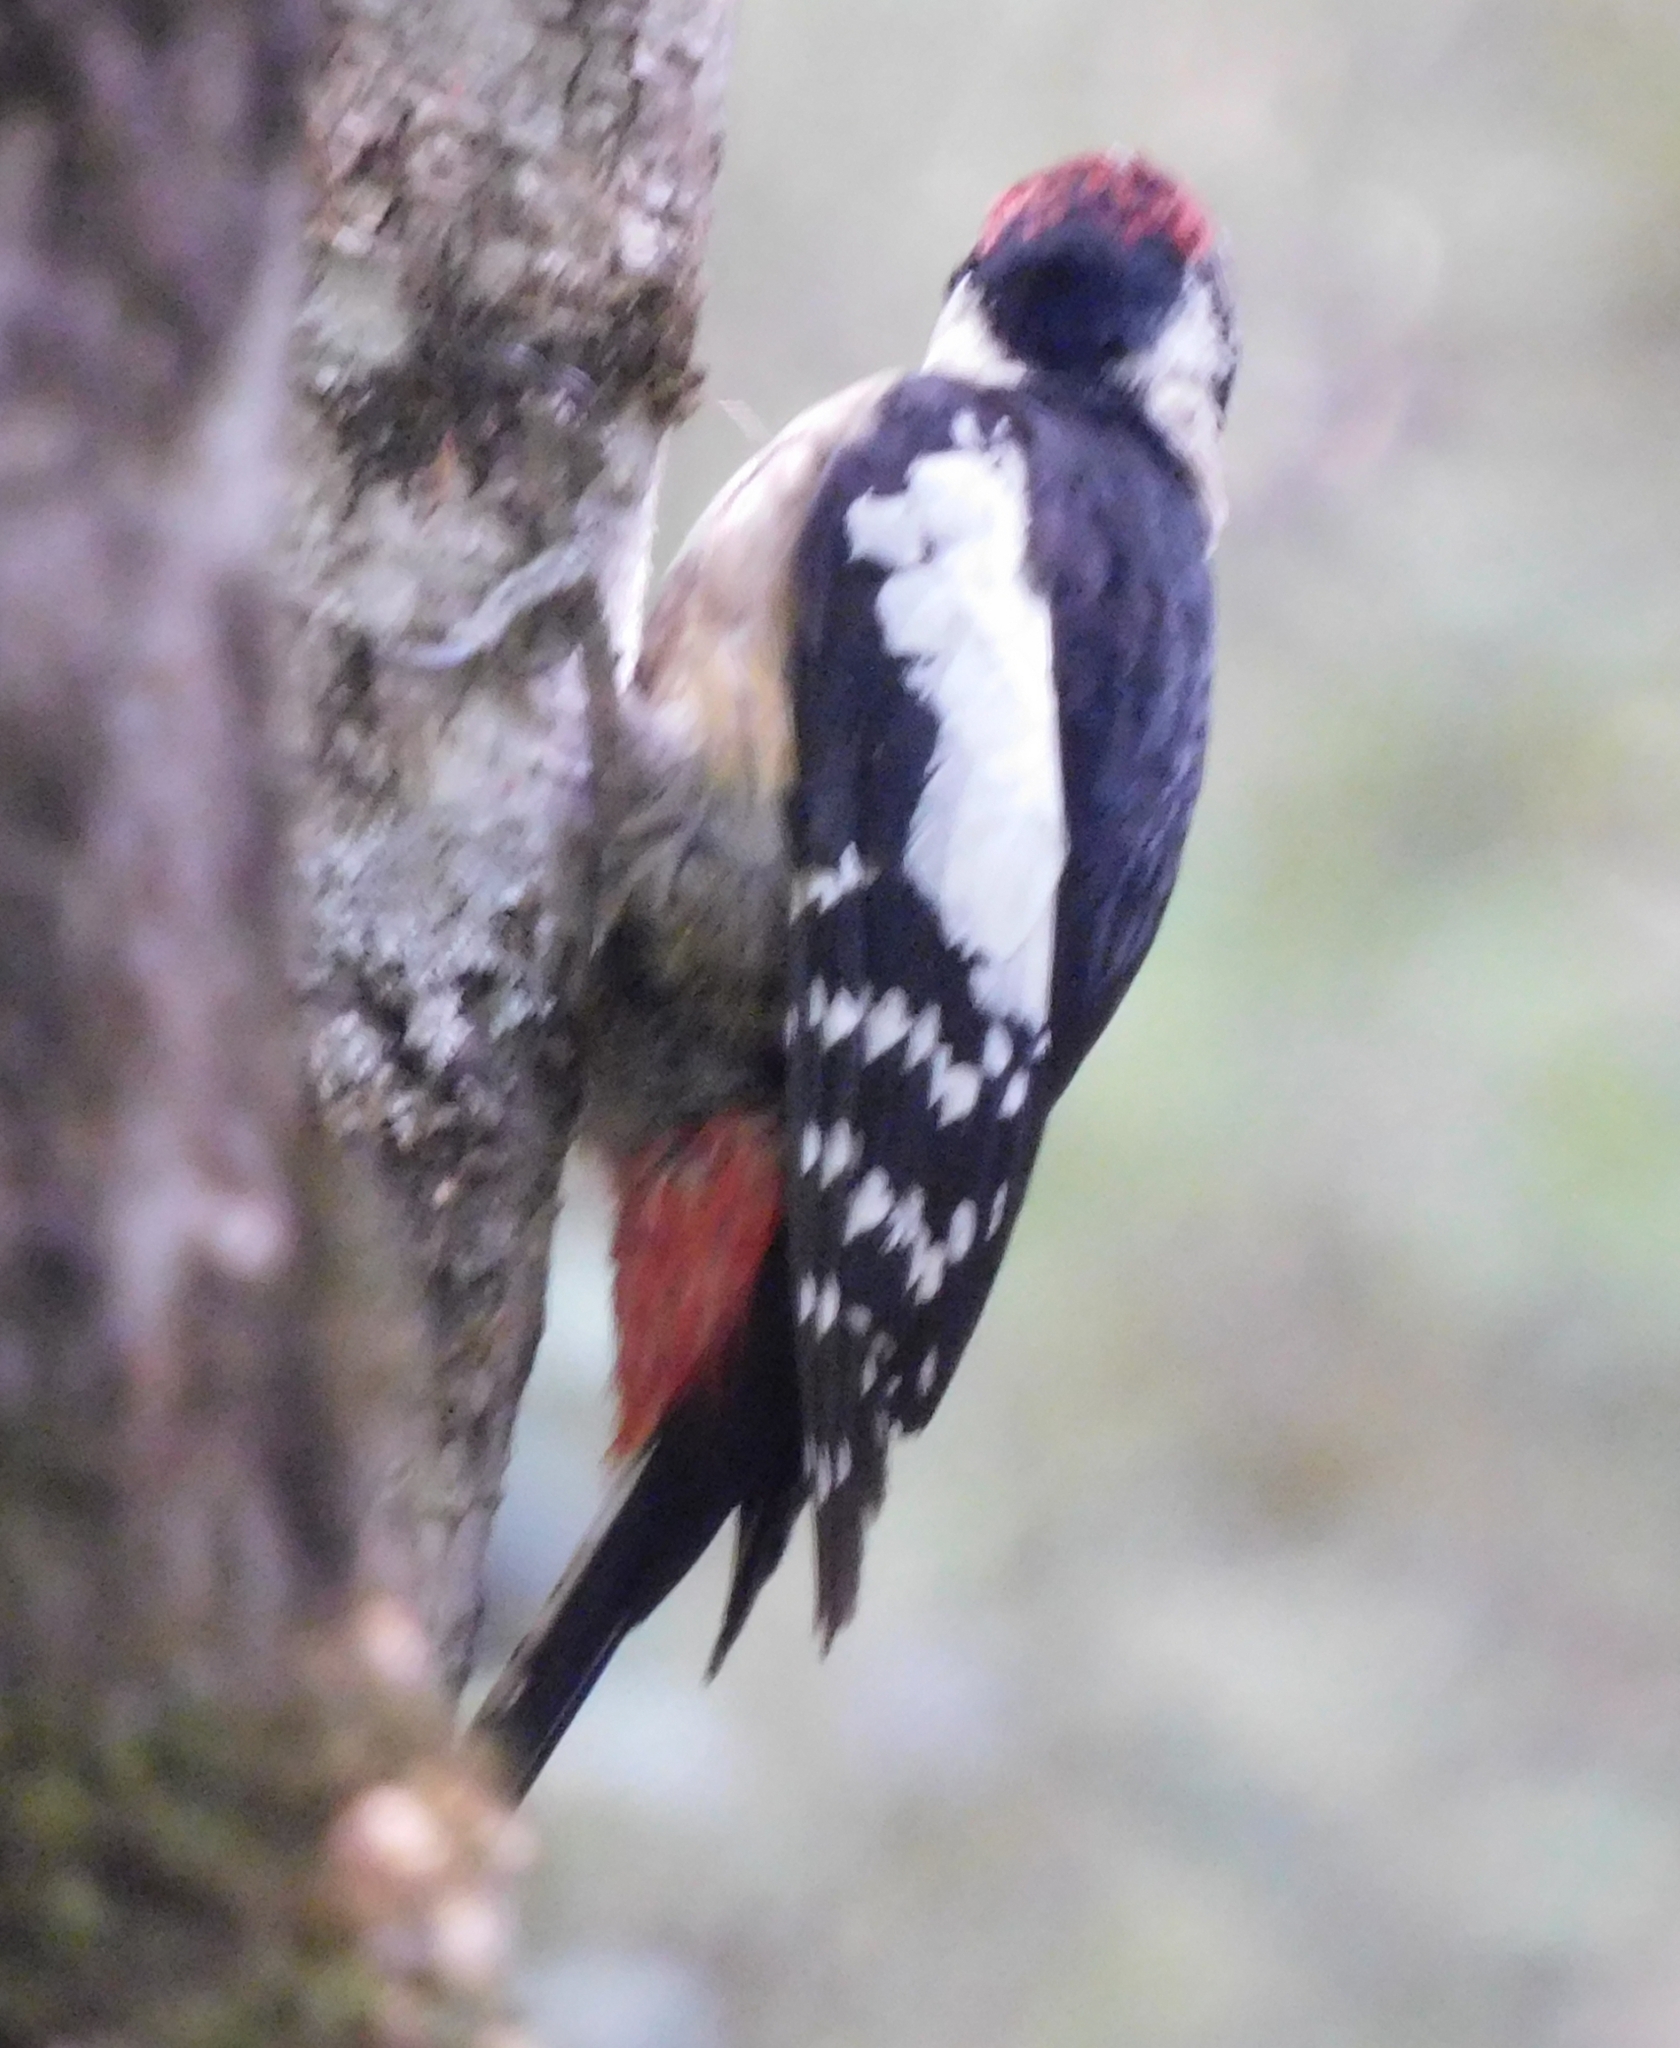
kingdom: Animalia
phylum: Chordata
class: Aves
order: Piciformes
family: Picidae
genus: Dendrocopos
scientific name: Dendrocopos himalayensis
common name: Himalayan woodpecker
